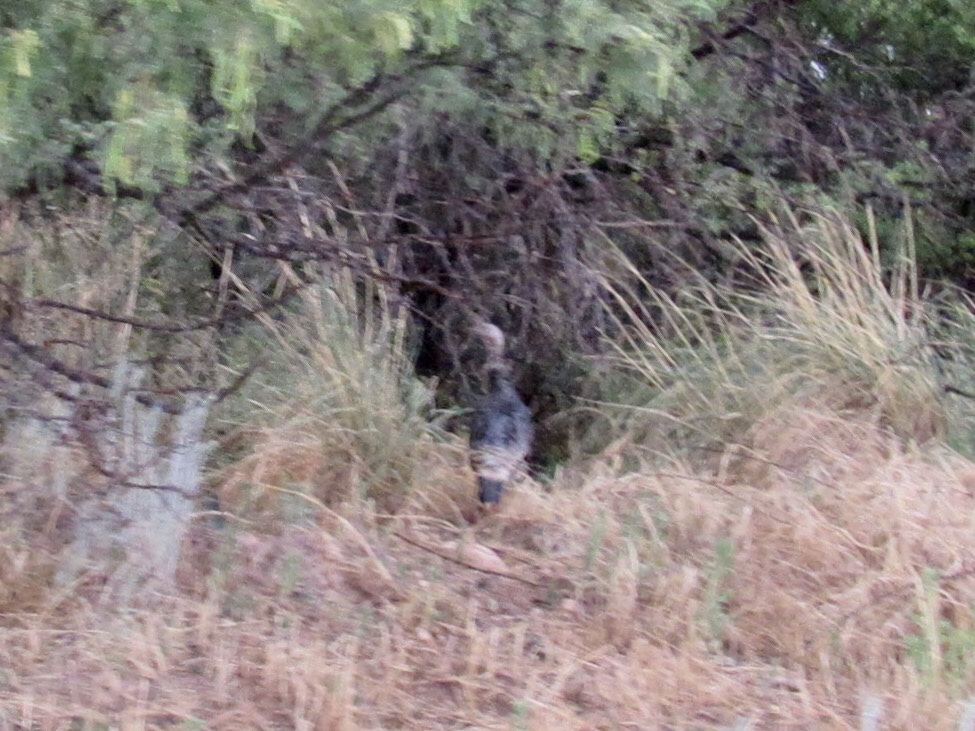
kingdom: Animalia
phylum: Chordata
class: Aves
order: Galliformes
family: Phasianidae
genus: Meleagris
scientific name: Meleagris gallopavo
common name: Wild turkey
